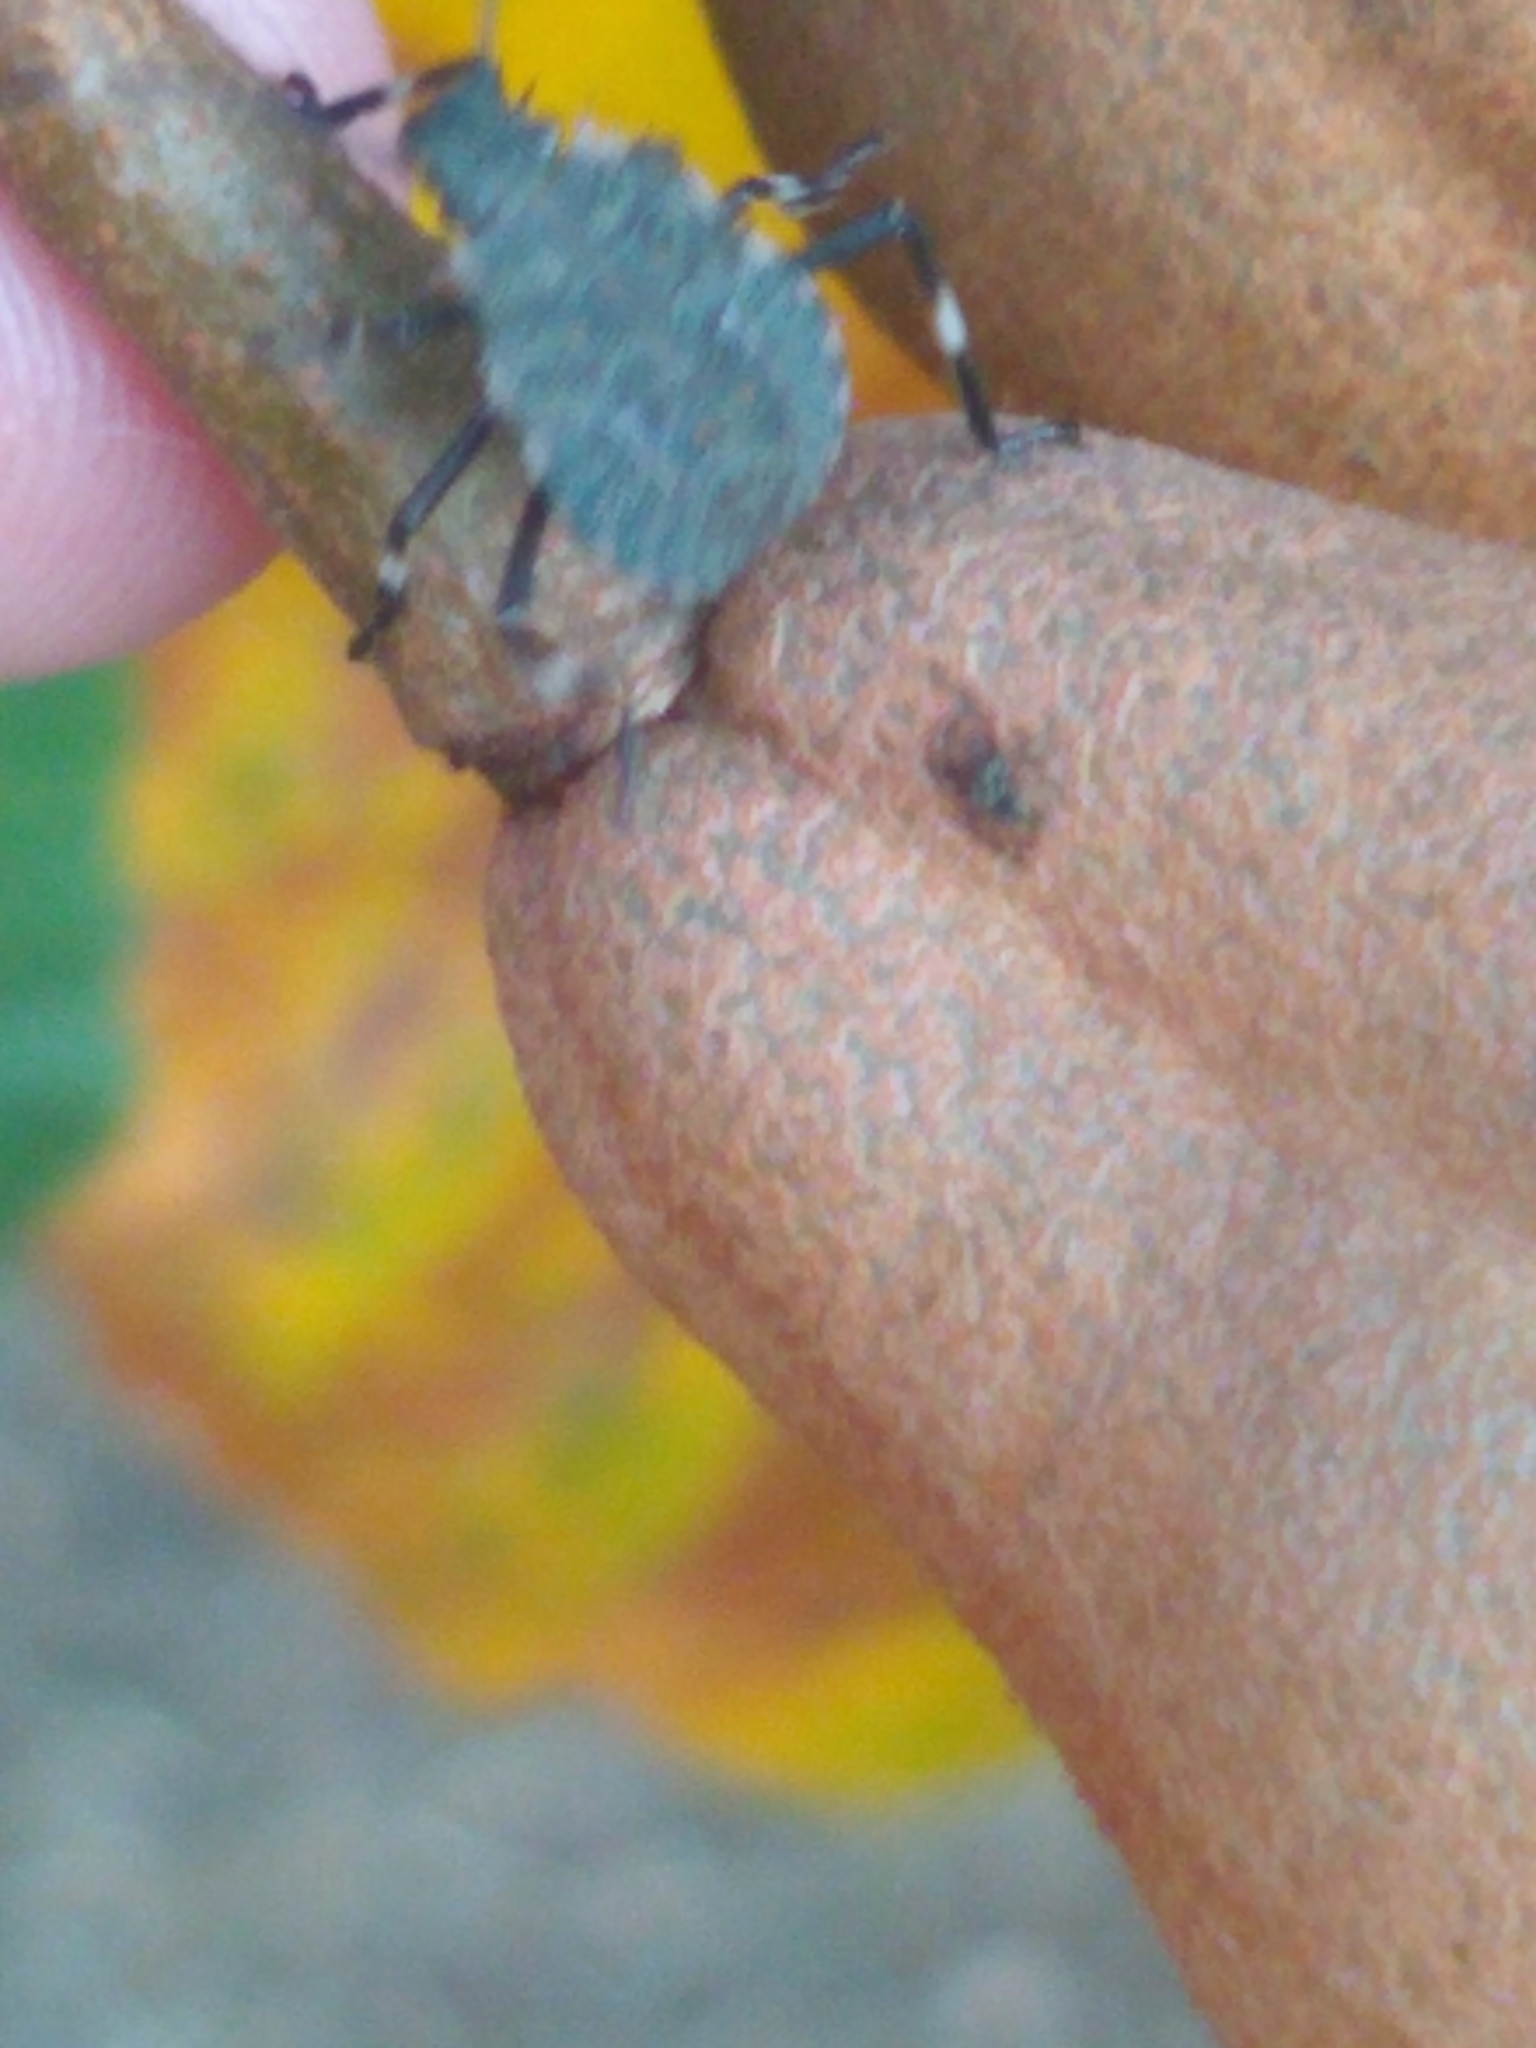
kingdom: Animalia
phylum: Arthropoda
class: Insecta
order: Hemiptera
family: Pentatomidae
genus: Halyomorpha
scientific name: Halyomorpha halys
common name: Brown marmorated stink bug
